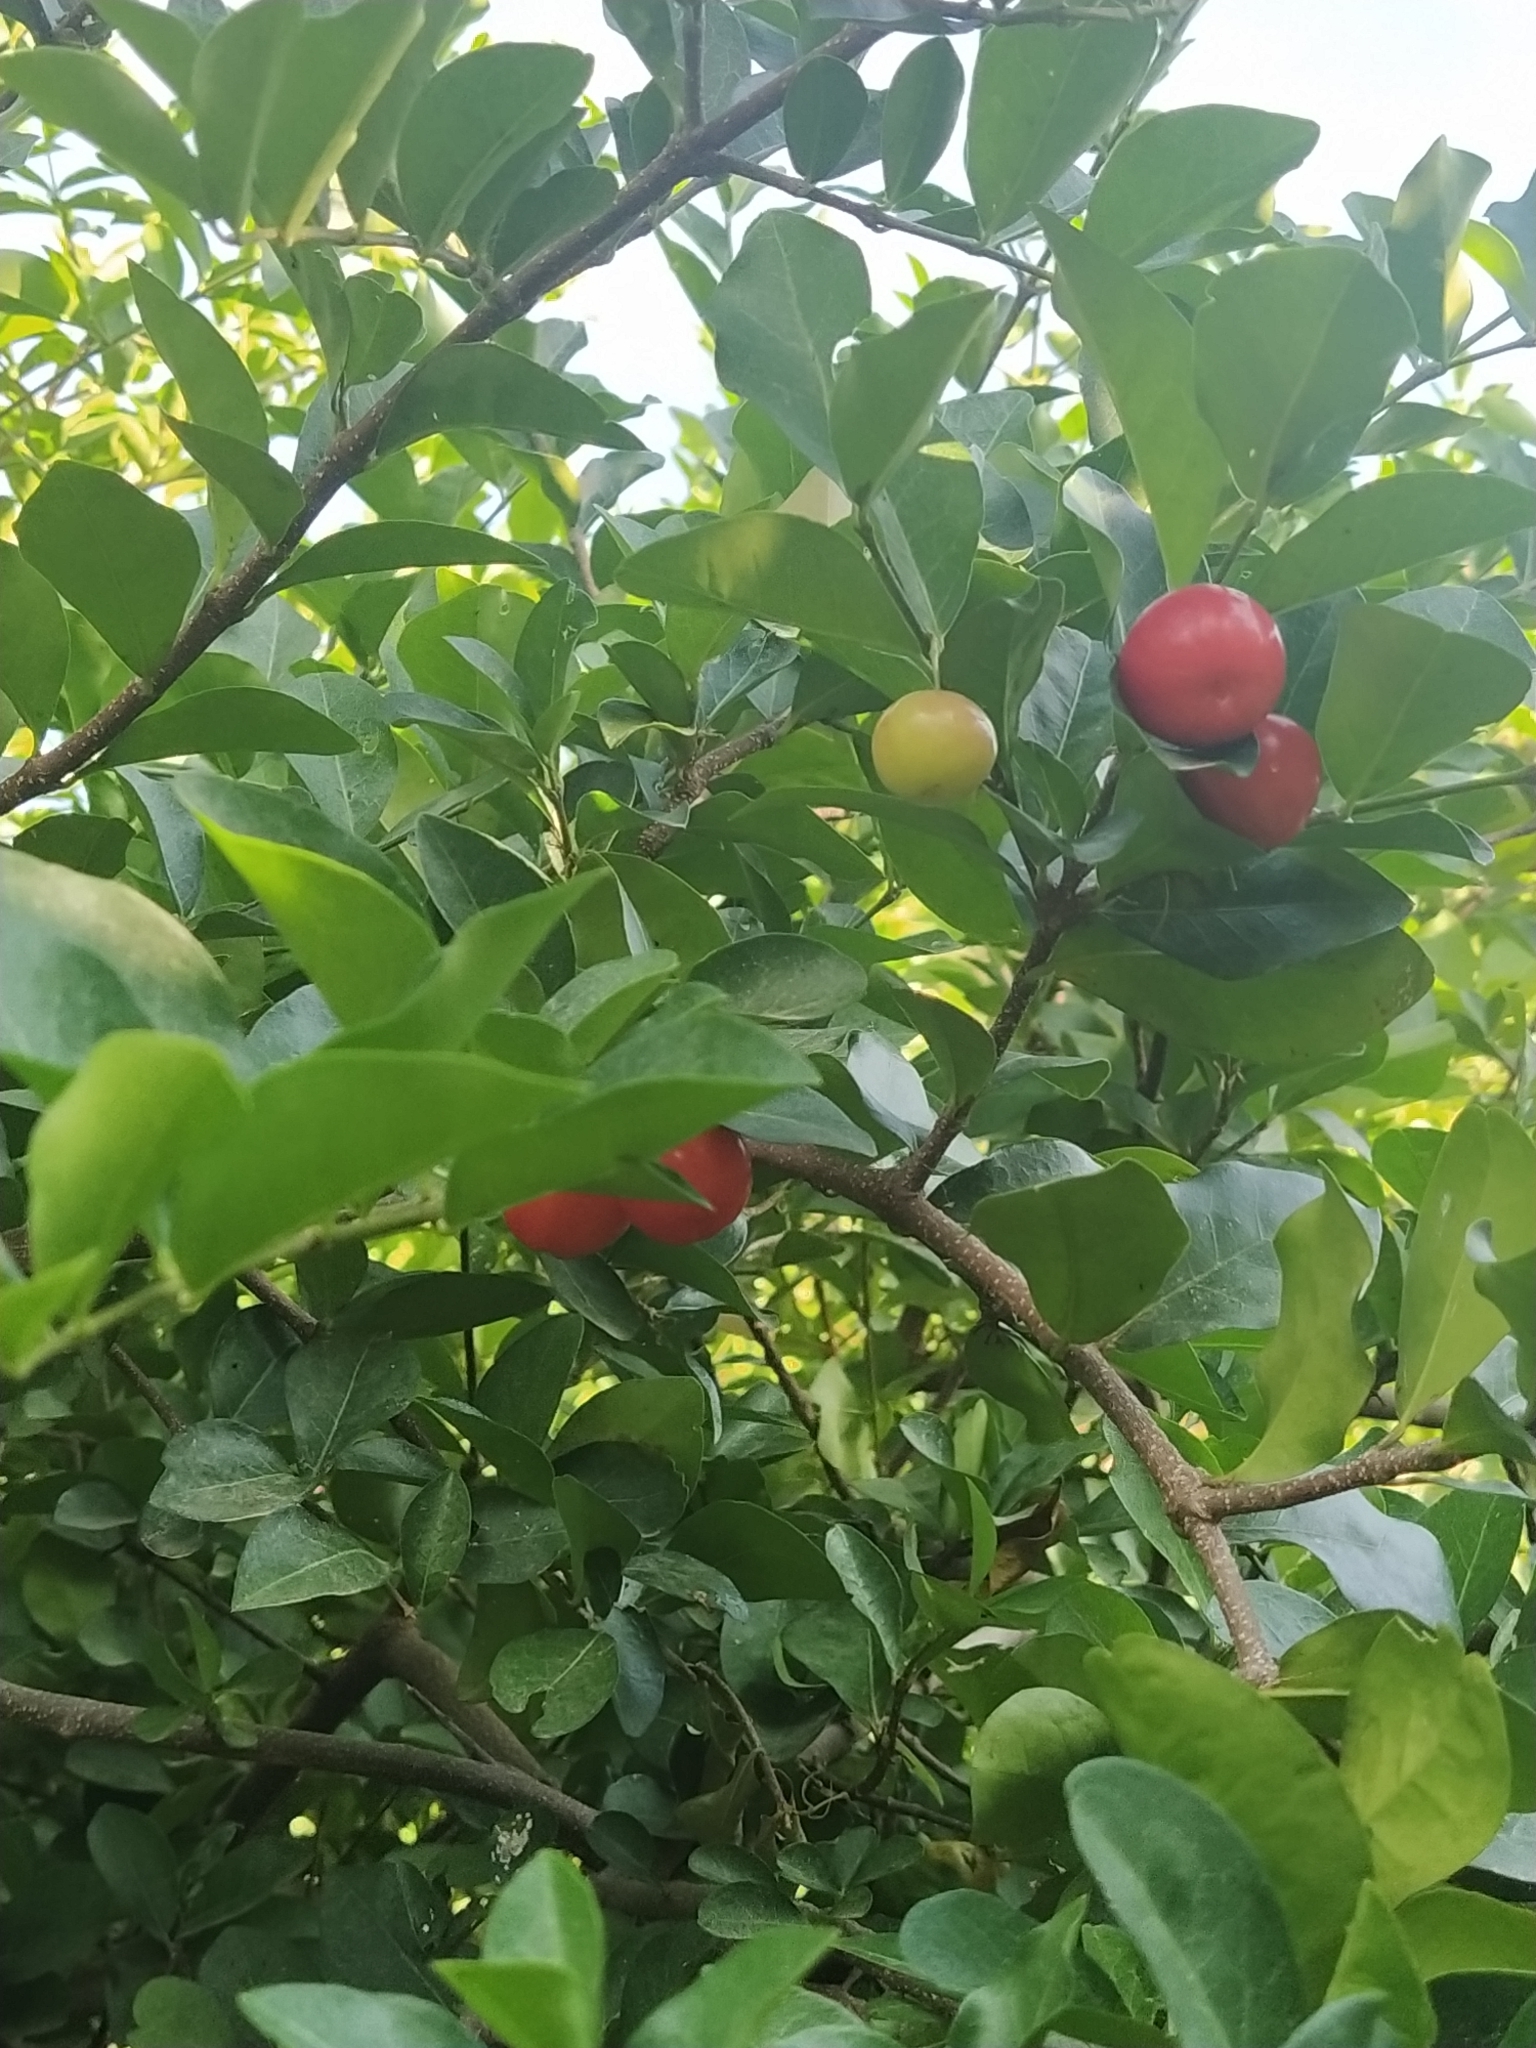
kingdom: Plantae
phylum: Tracheophyta
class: Magnoliopsida
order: Malpighiales
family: Malpighiaceae
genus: Malpighia
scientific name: Malpighia emarginata
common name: Barbados cherry
